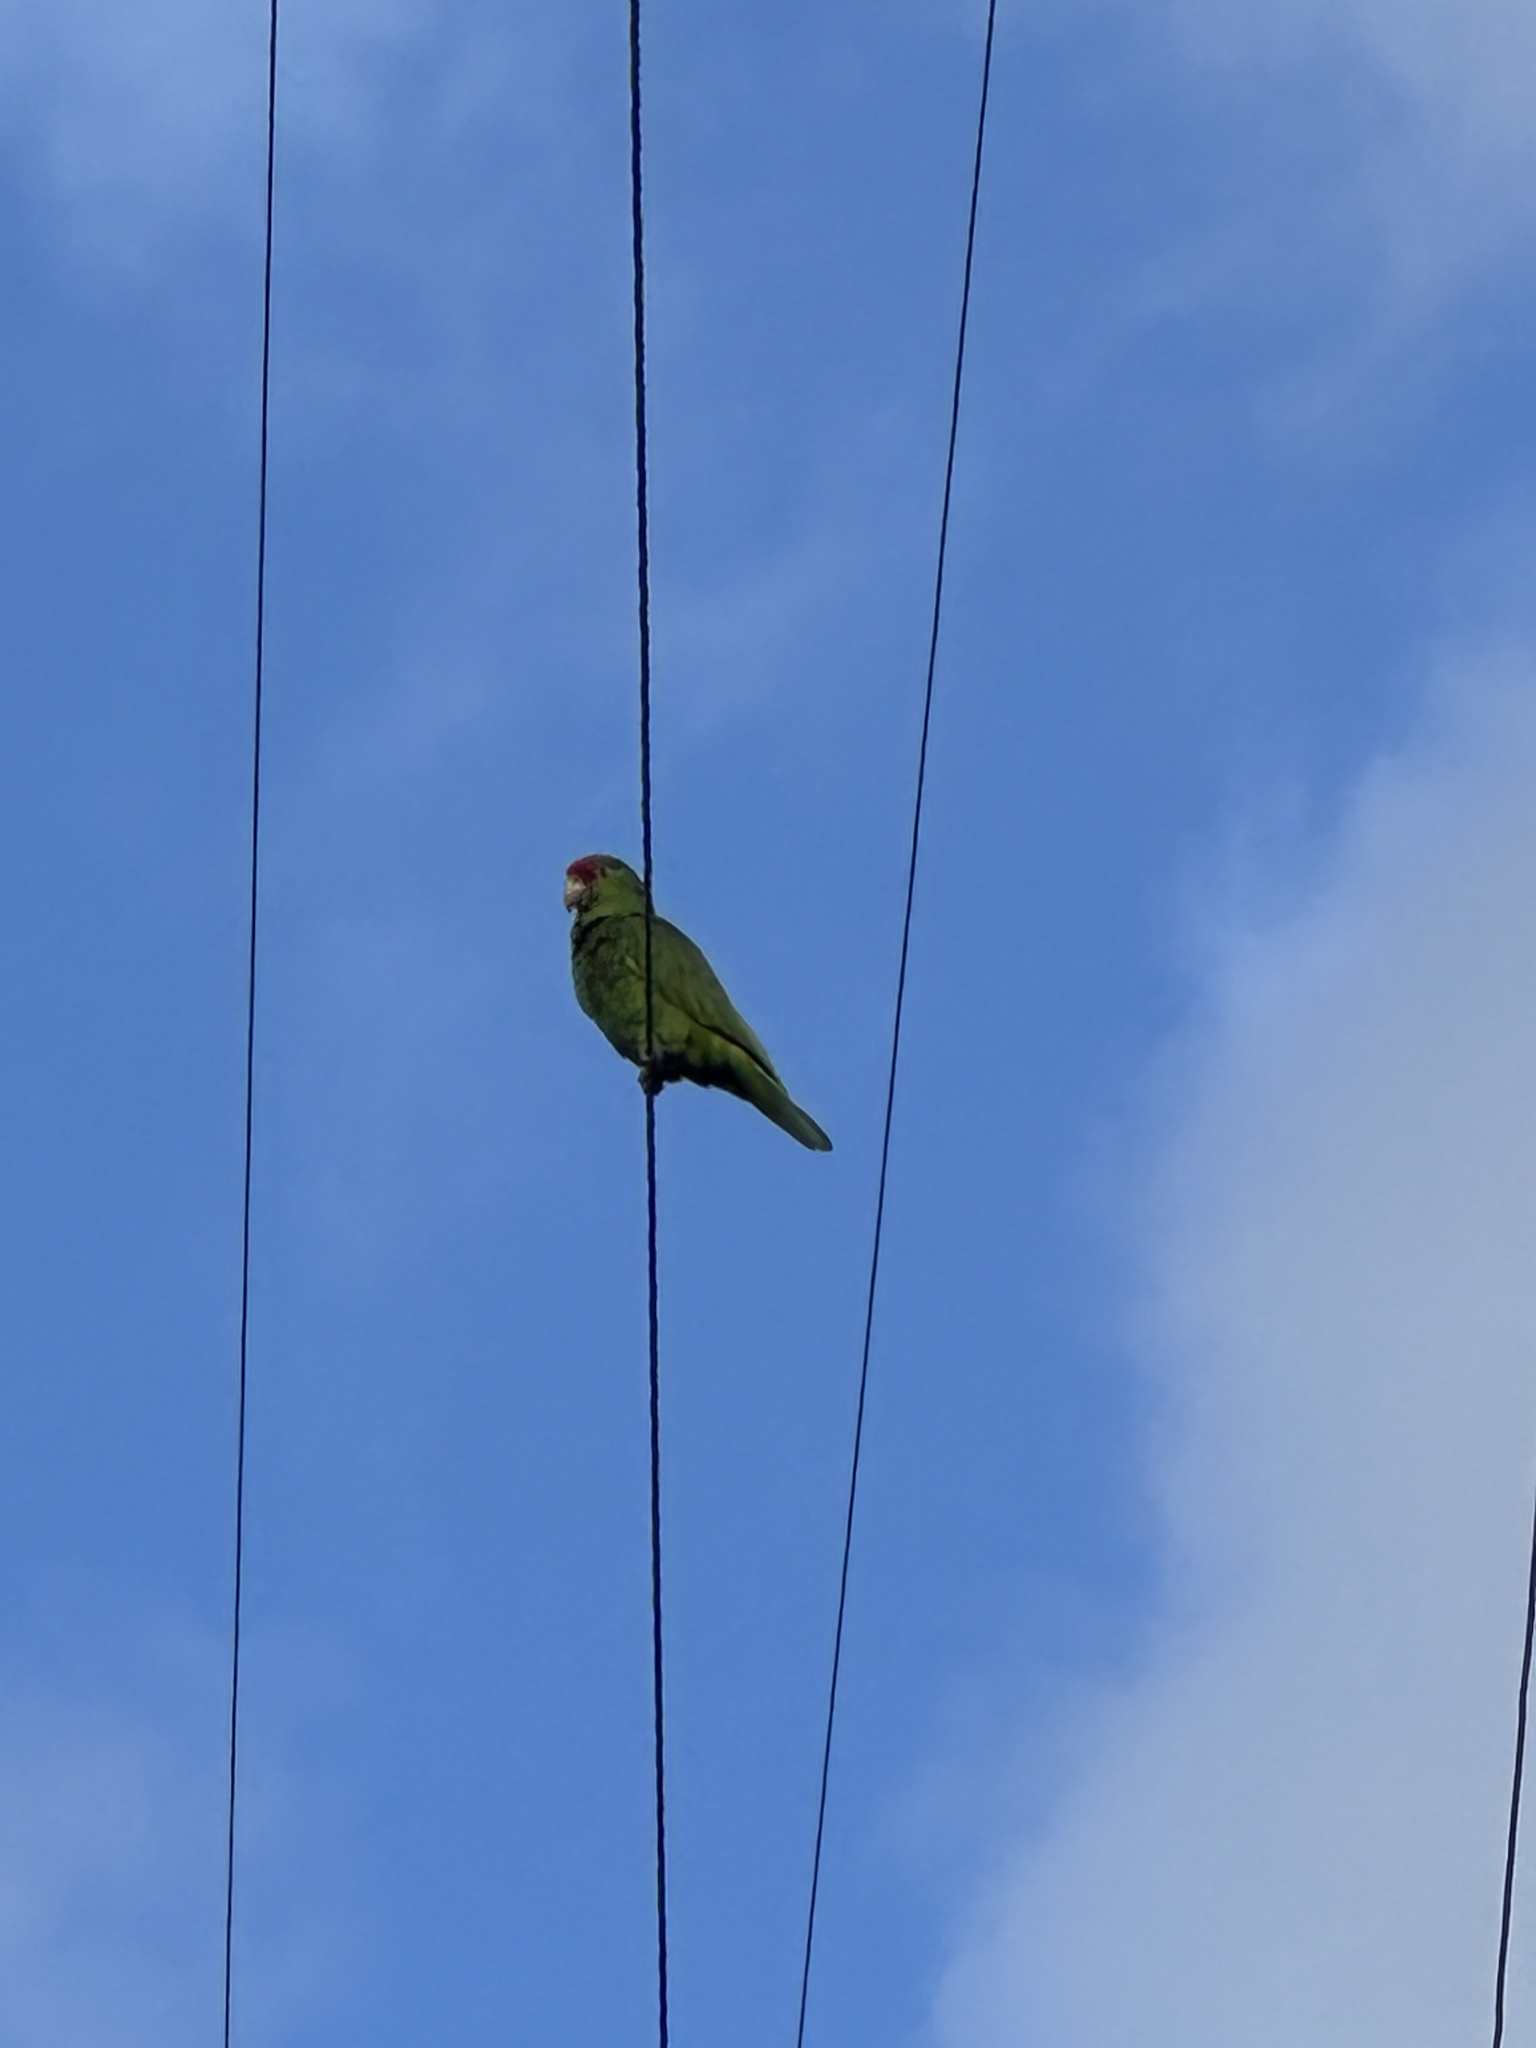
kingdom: Animalia
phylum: Chordata
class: Aves
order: Psittaciformes
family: Psittacidae
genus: Amazona
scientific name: Amazona viridigenalis
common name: Red-crowned amazon
